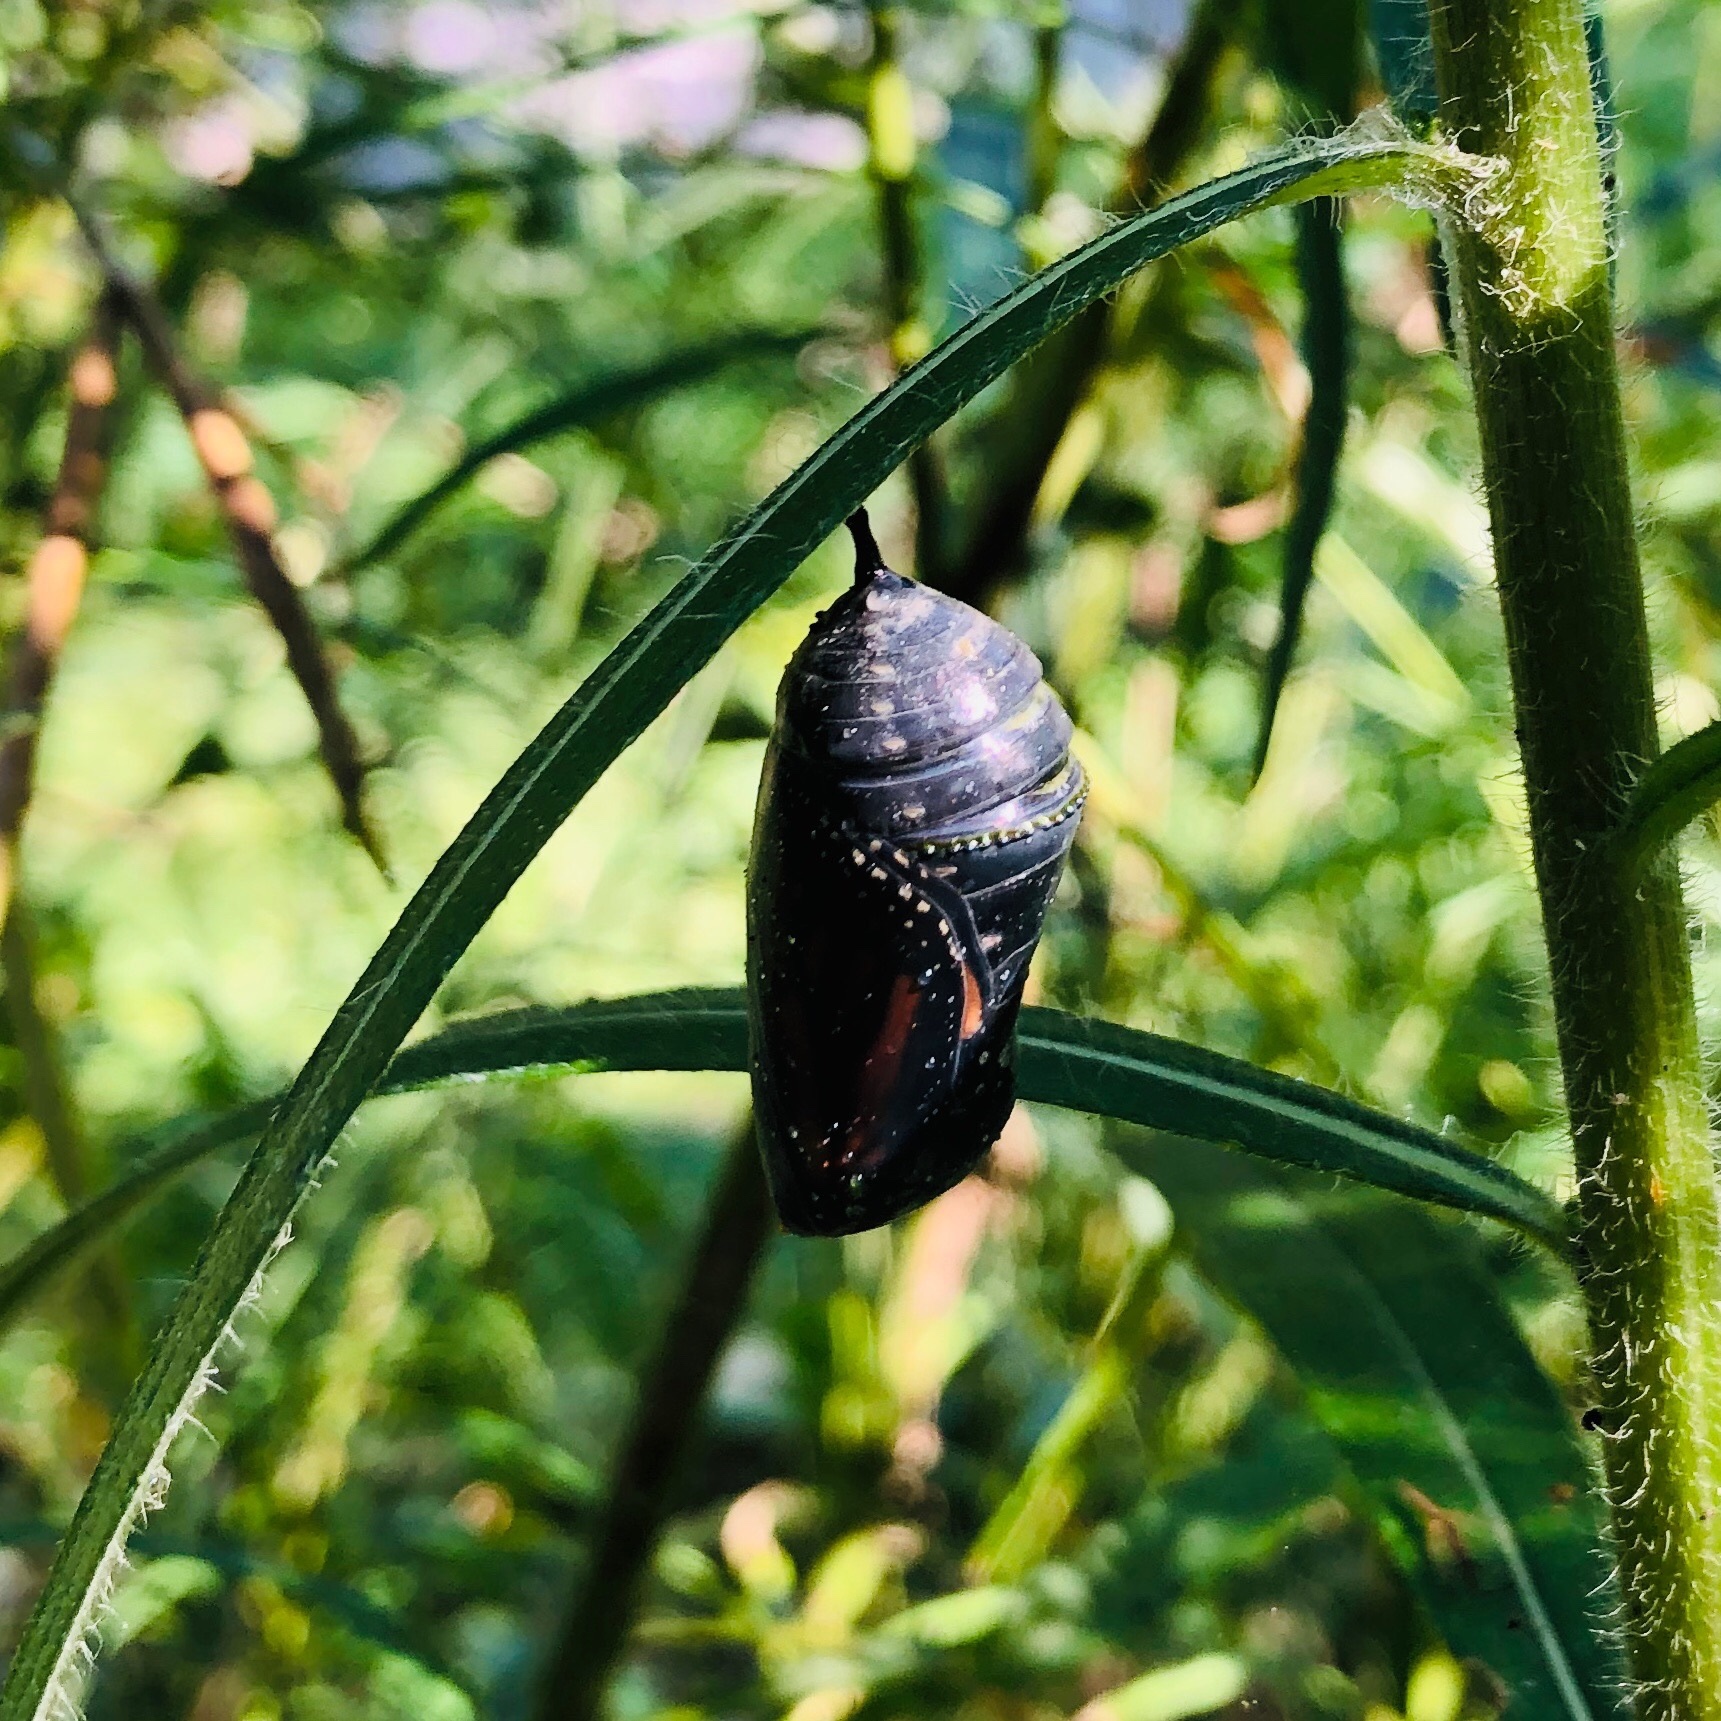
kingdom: Animalia
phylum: Arthropoda
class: Insecta
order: Lepidoptera
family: Nymphalidae
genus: Danaus
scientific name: Danaus plexippus
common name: Monarch
